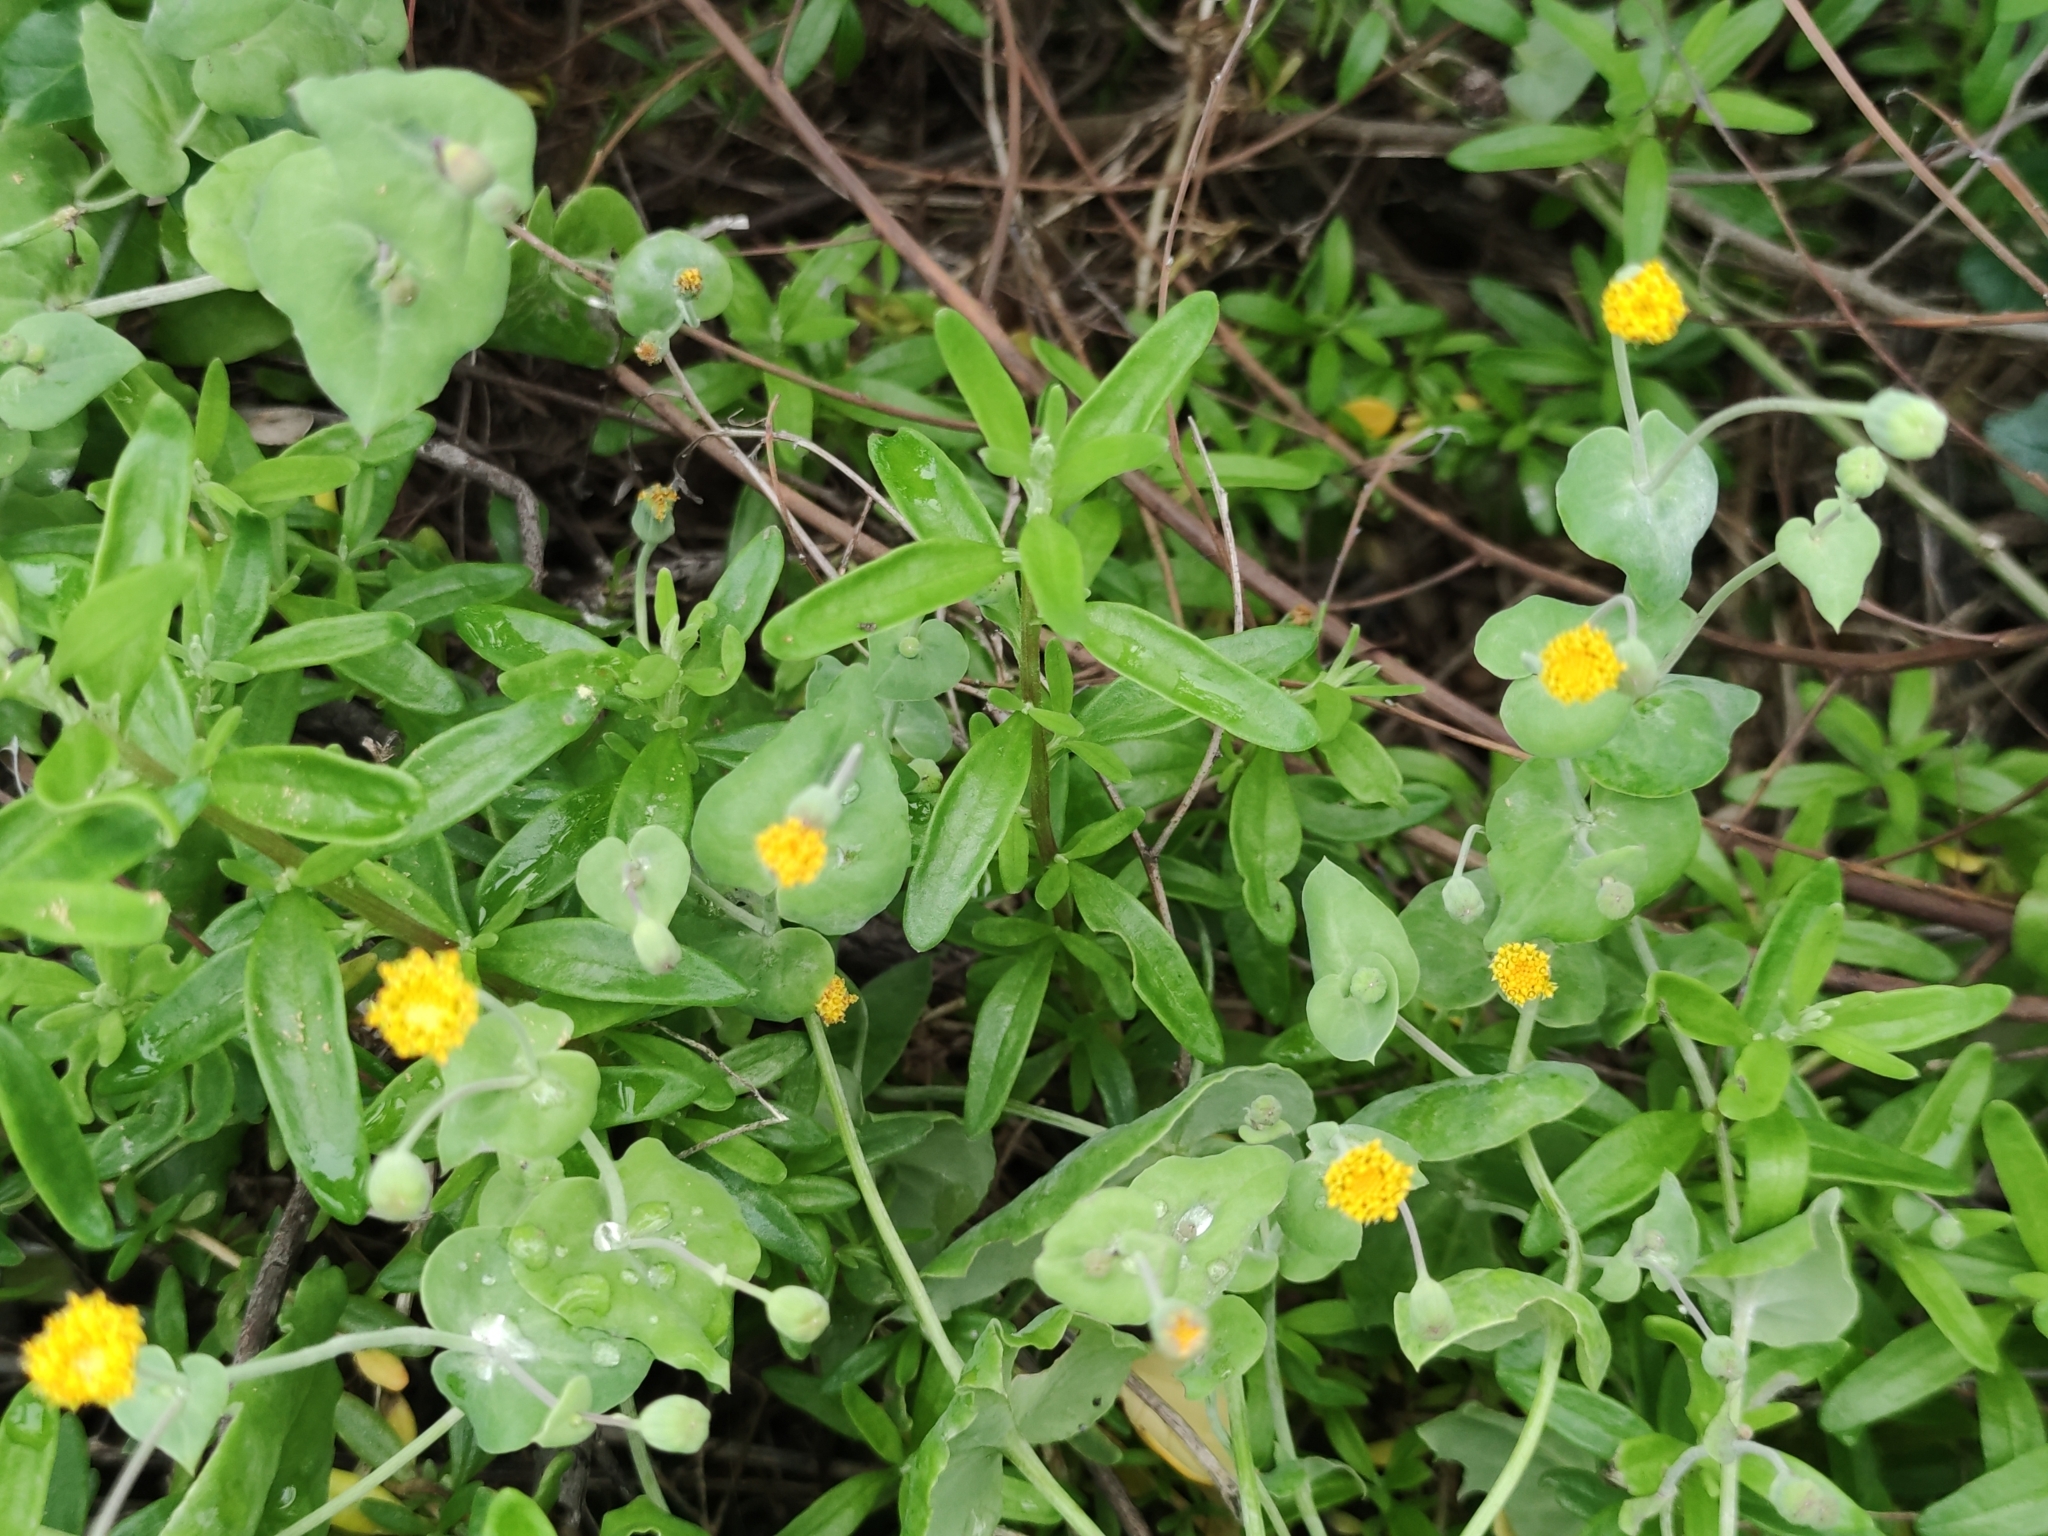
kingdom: Plantae
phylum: Tracheophyta
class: Magnoliopsida
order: Asterales
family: Asteraceae
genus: Othonna
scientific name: Othonna undulosa
